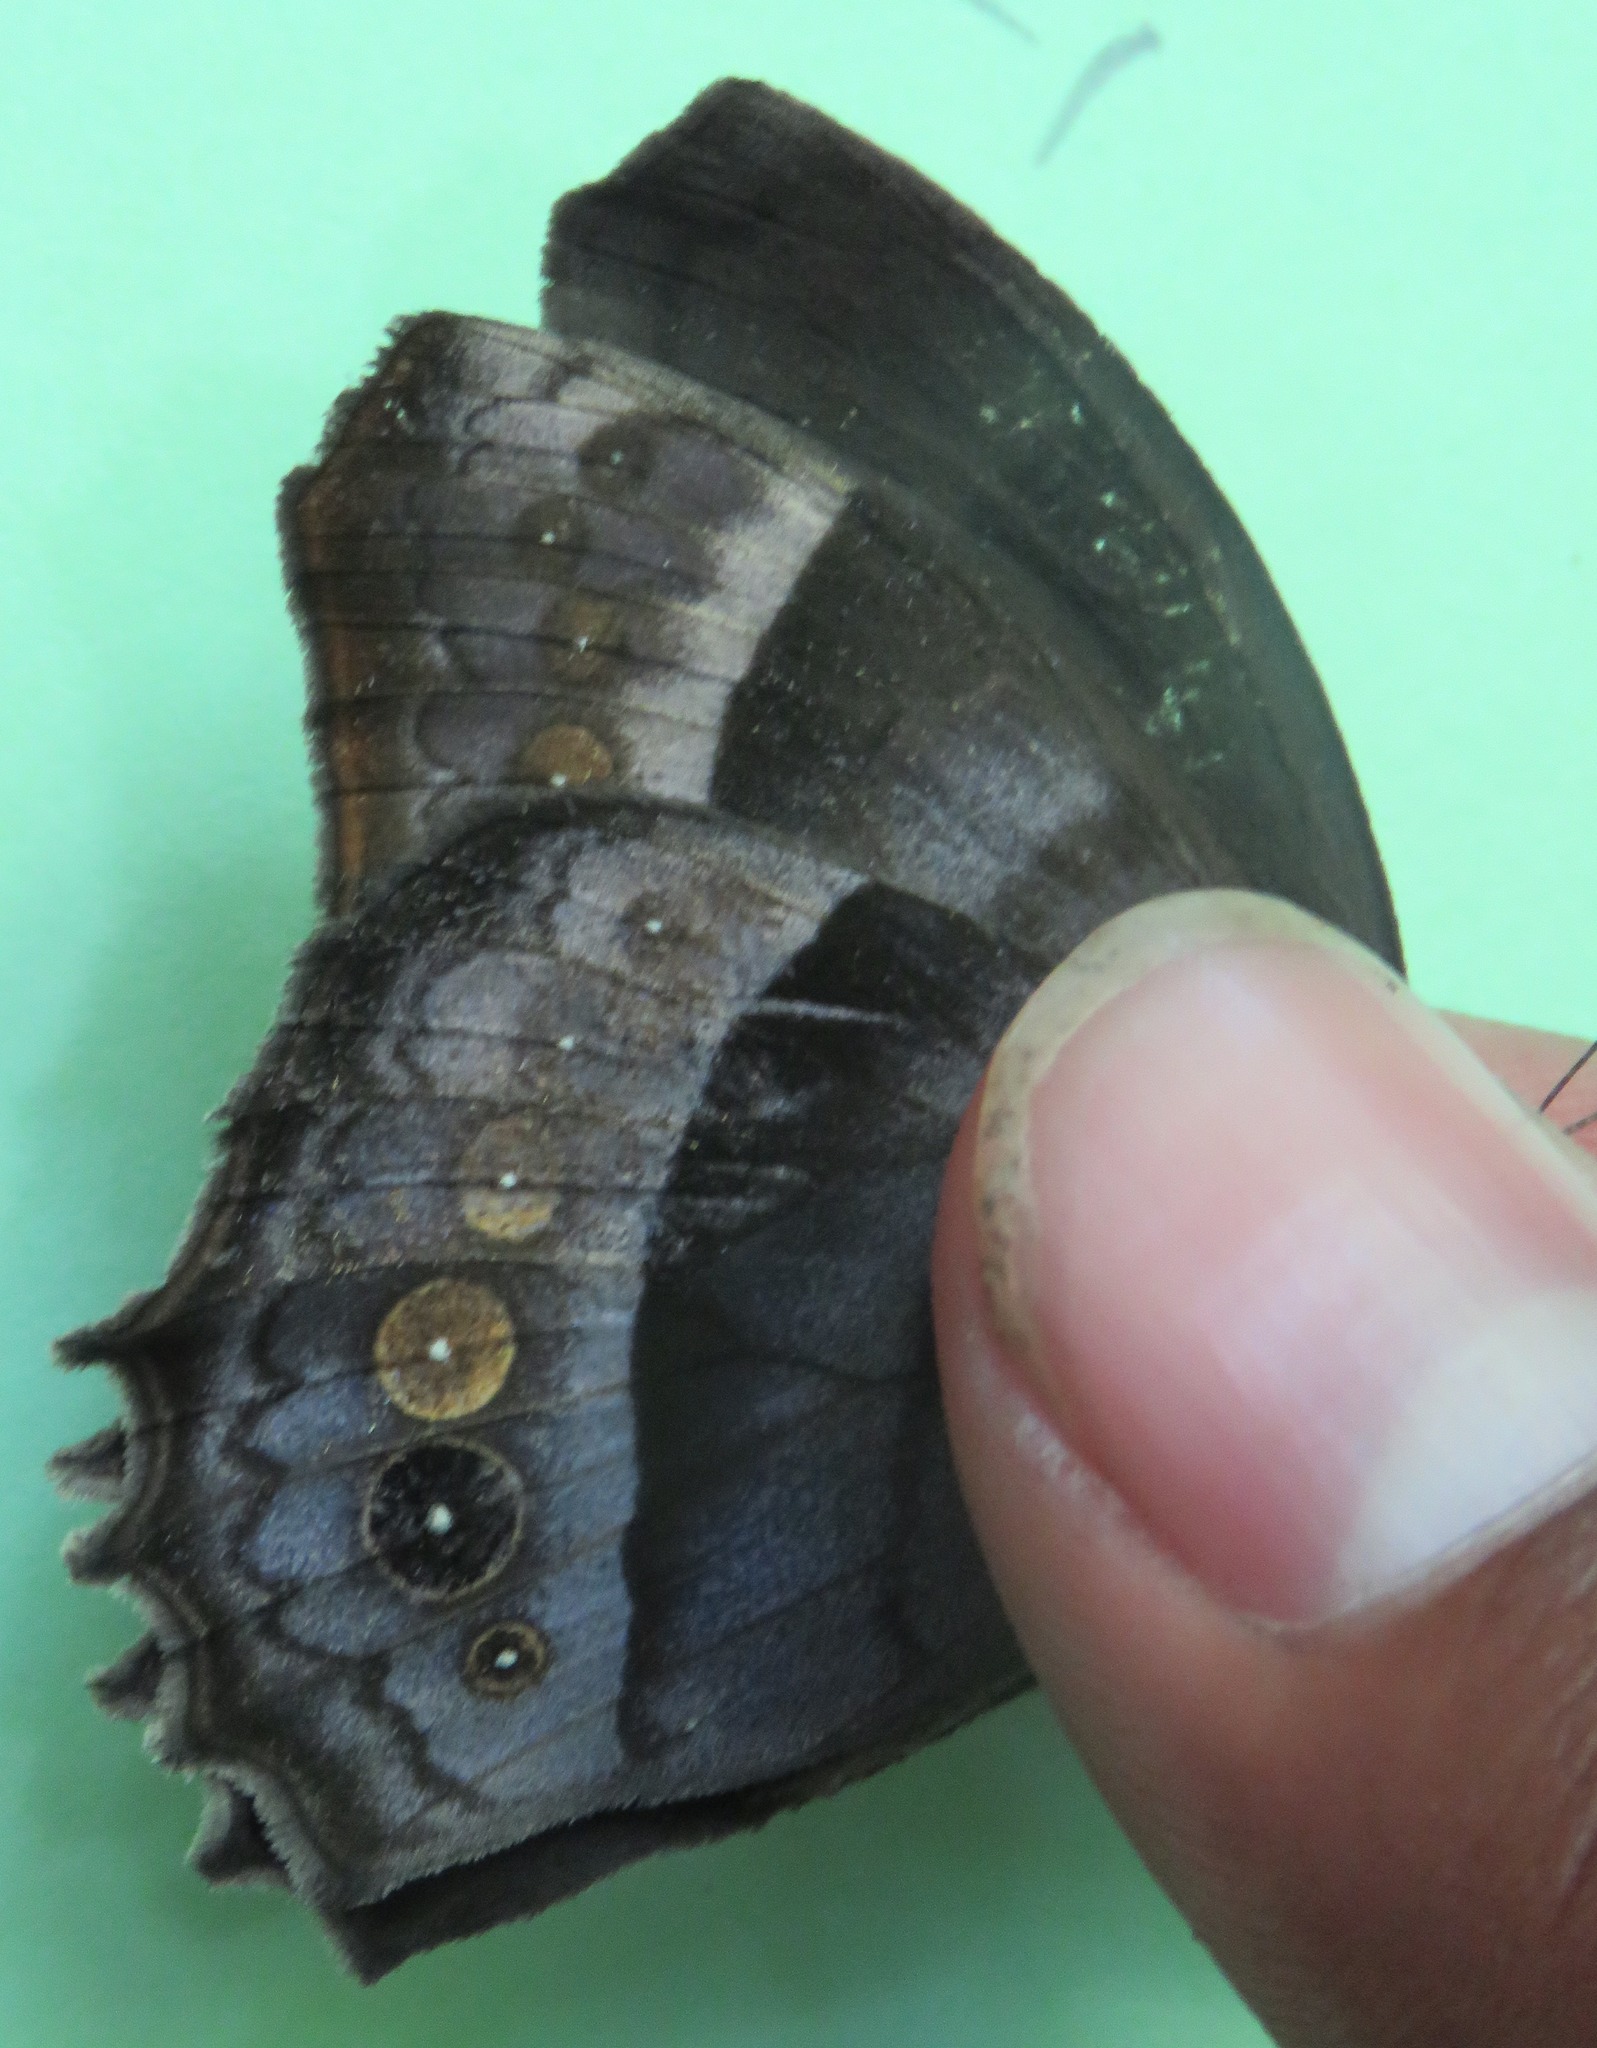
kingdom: Animalia
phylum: Arthropoda
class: Insecta
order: Lepidoptera
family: Nymphalidae
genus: Taygetis
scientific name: Taygetis inconspicua
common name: Inconspicuous satyr
